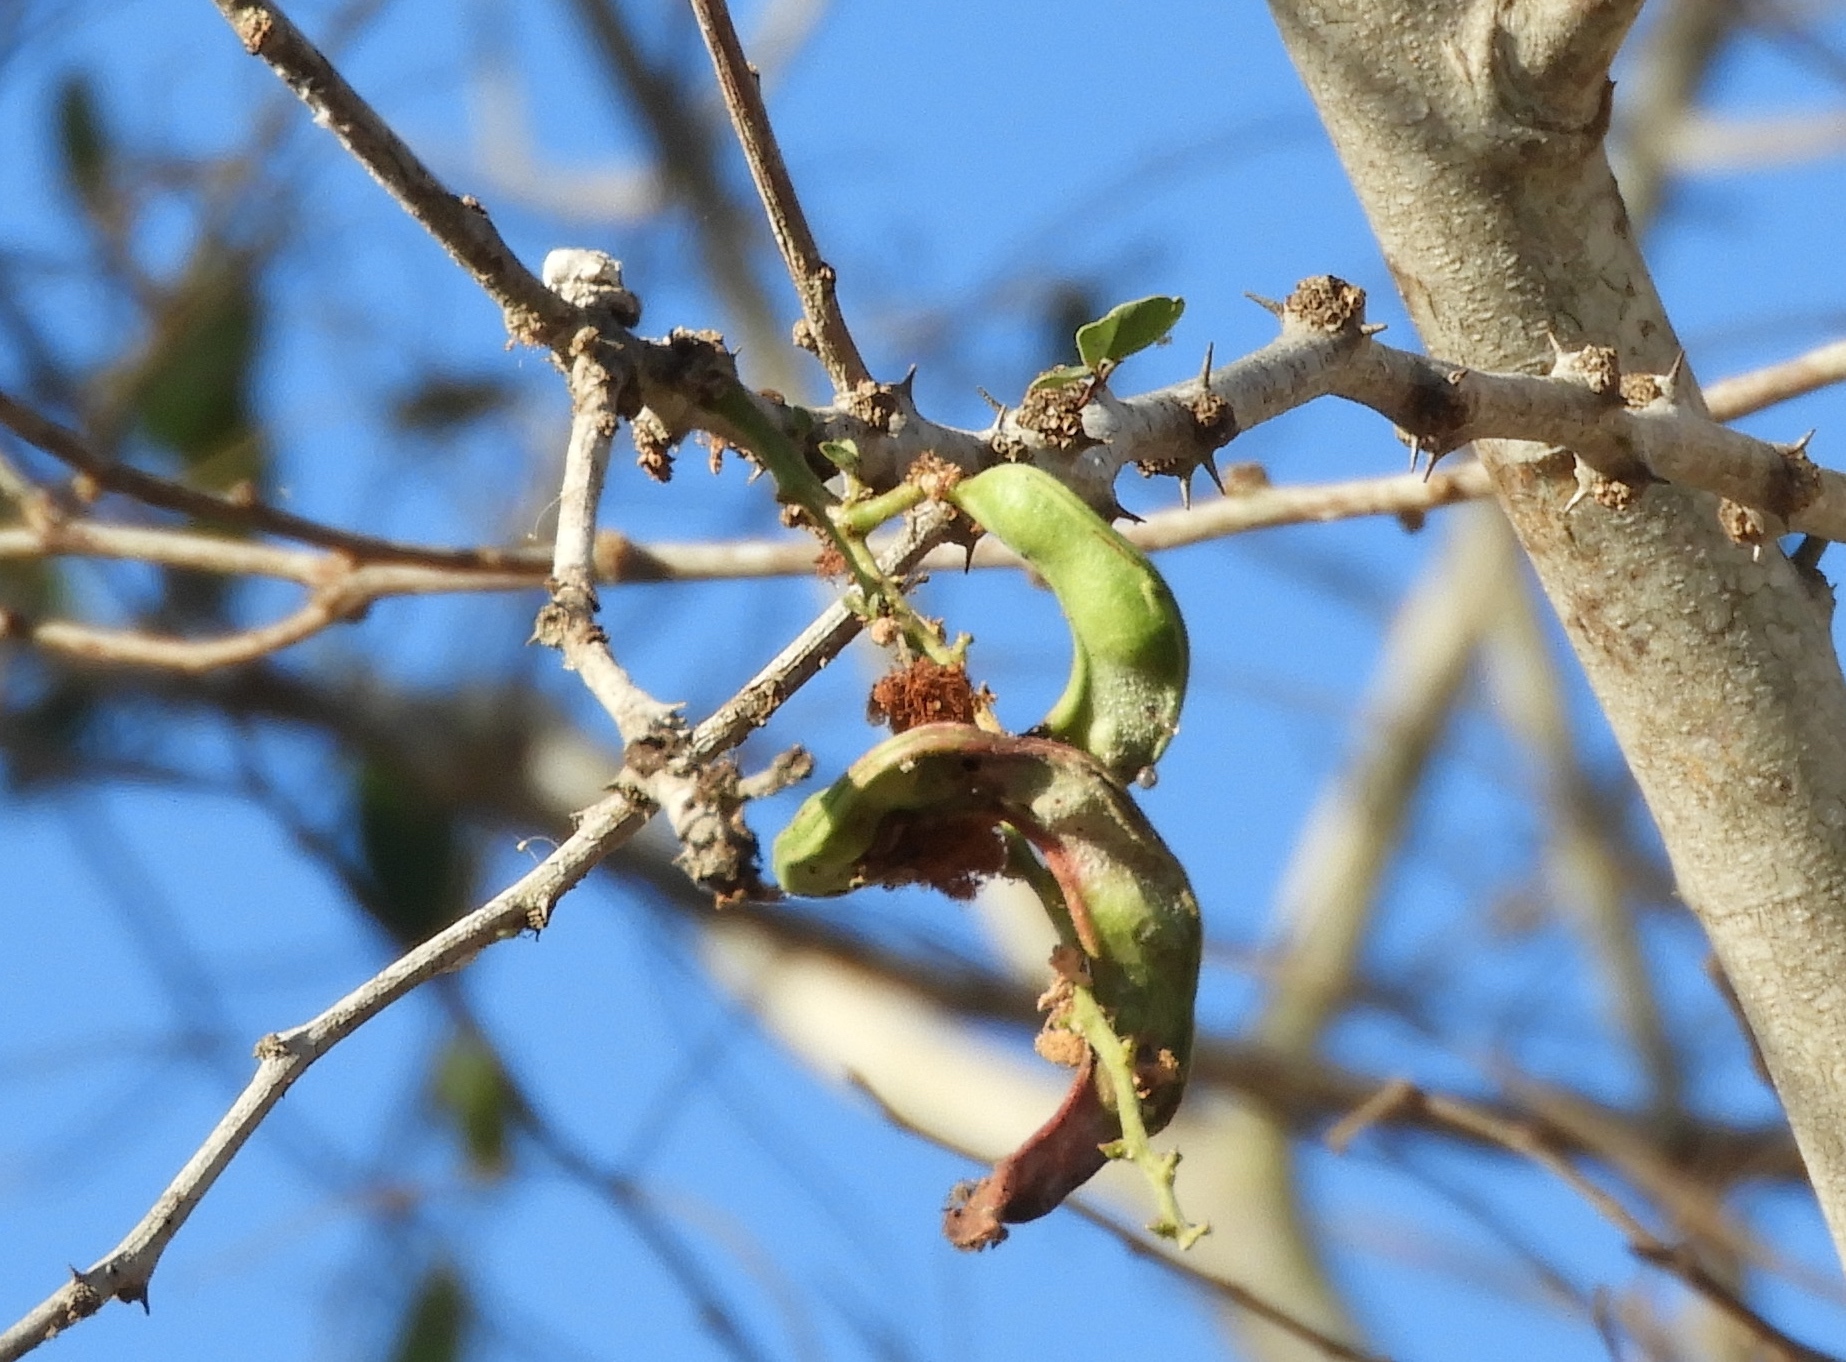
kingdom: Plantae
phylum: Tracheophyta
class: Magnoliopsida
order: Fabales
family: Fabaceae
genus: Pithecellobium
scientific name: Pithecellobium dulce
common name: Monkeypod
